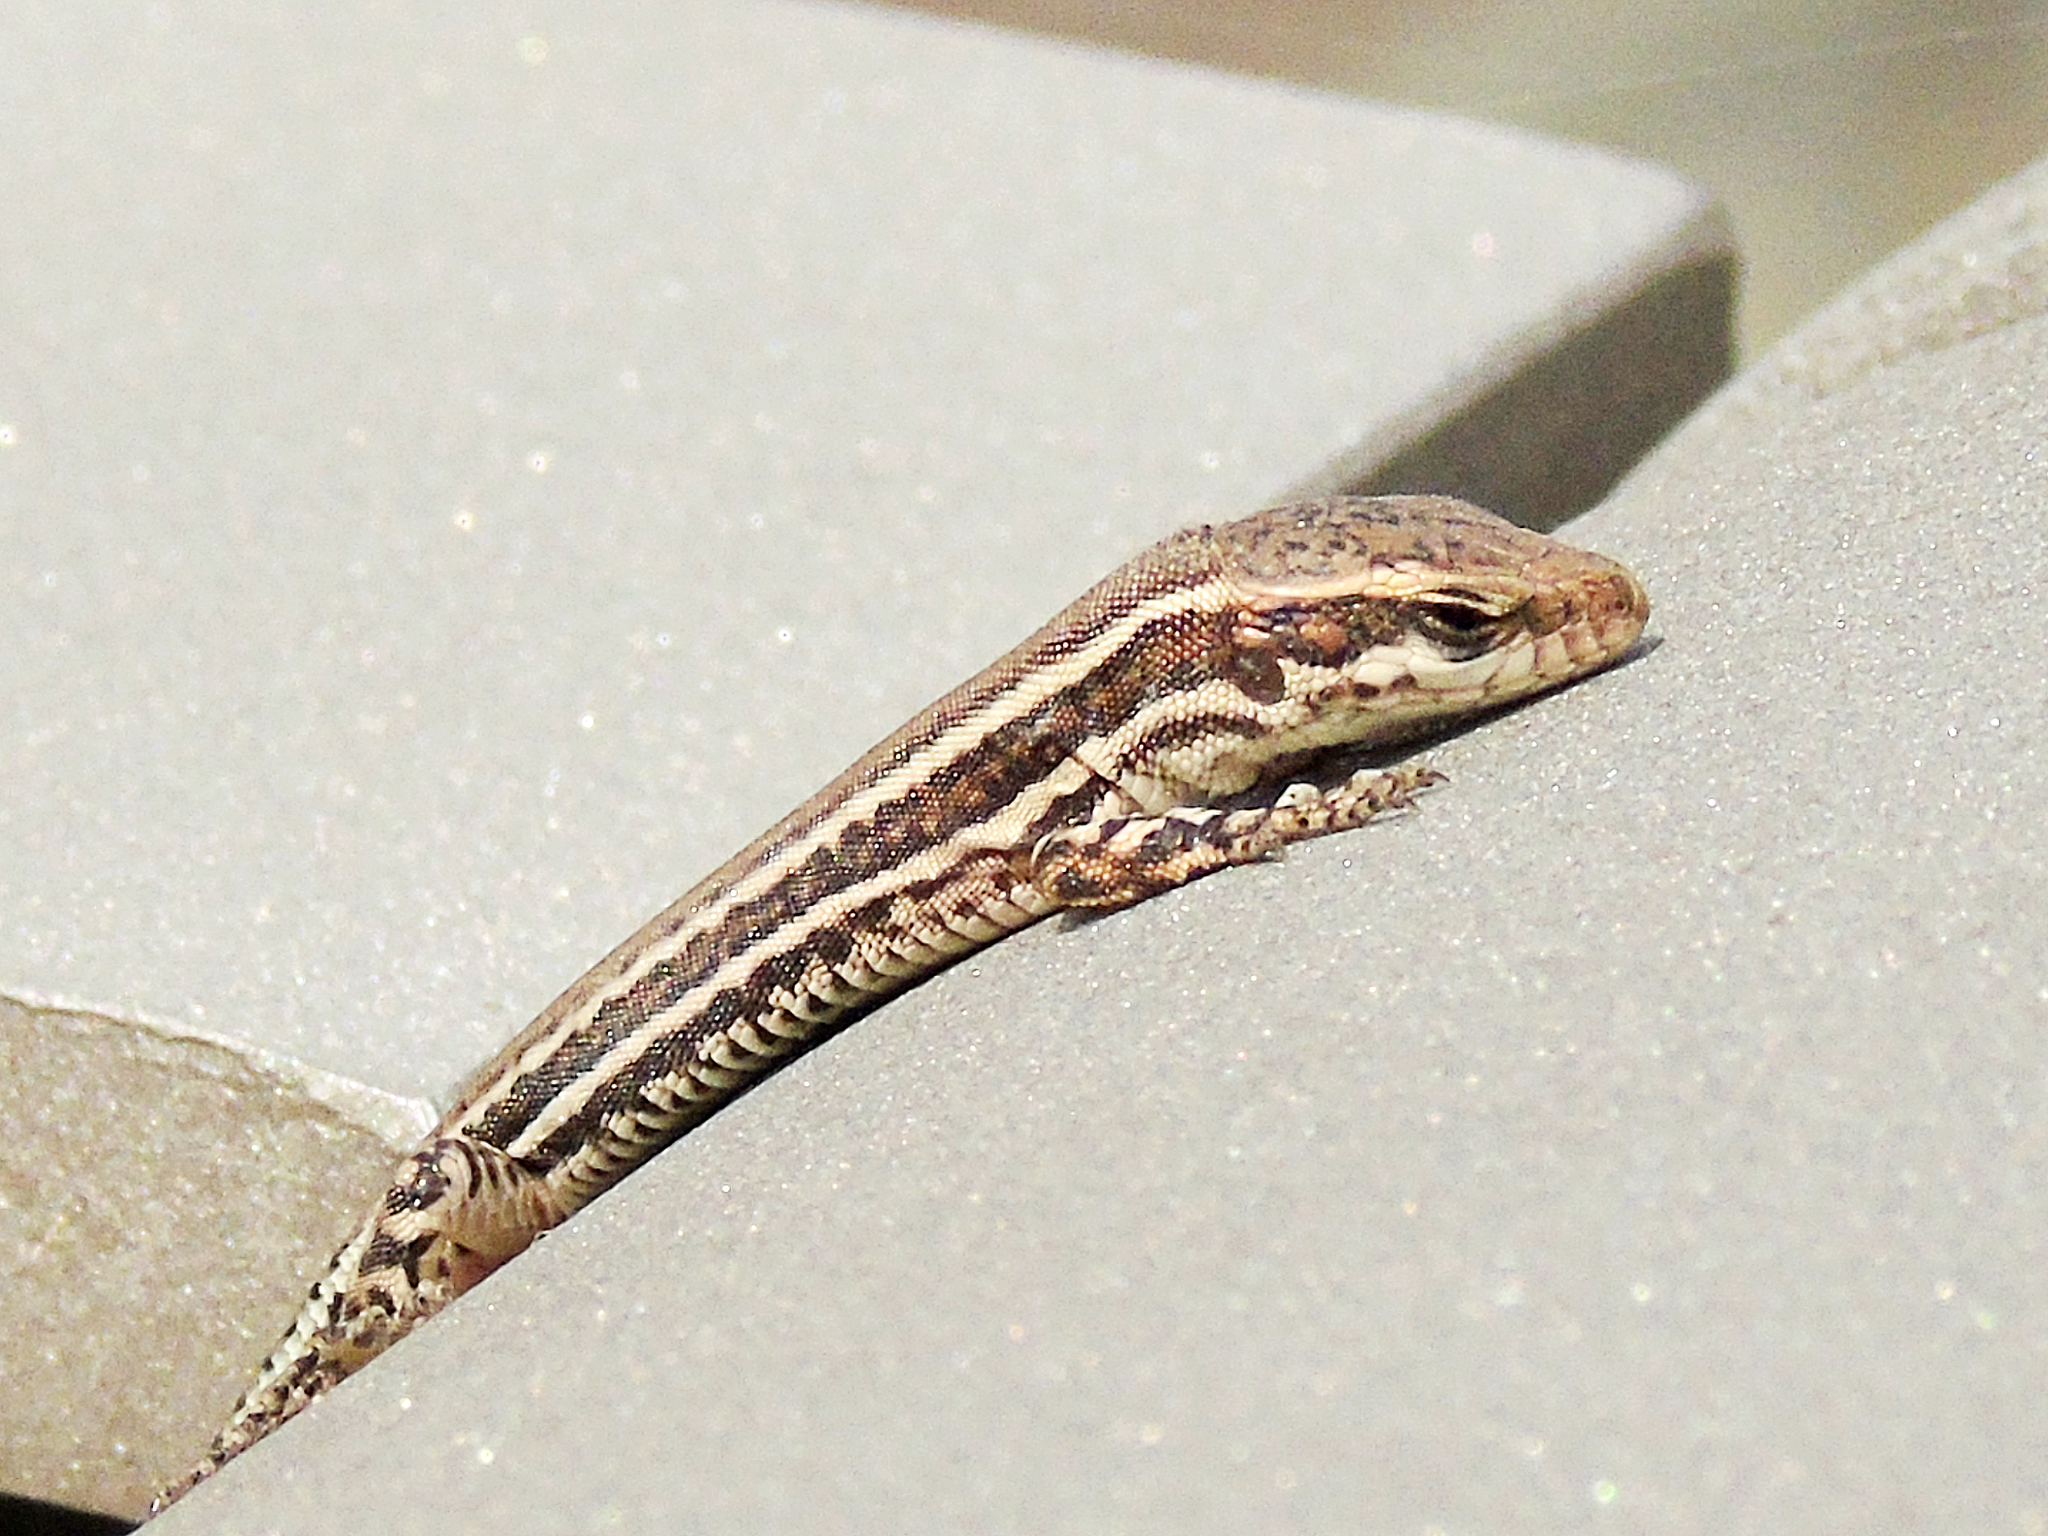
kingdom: Animalia
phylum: Chordata
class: Squamata
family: Lacertidae
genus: Podarcis
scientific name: Podarcis muralis
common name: Common wall lizard
